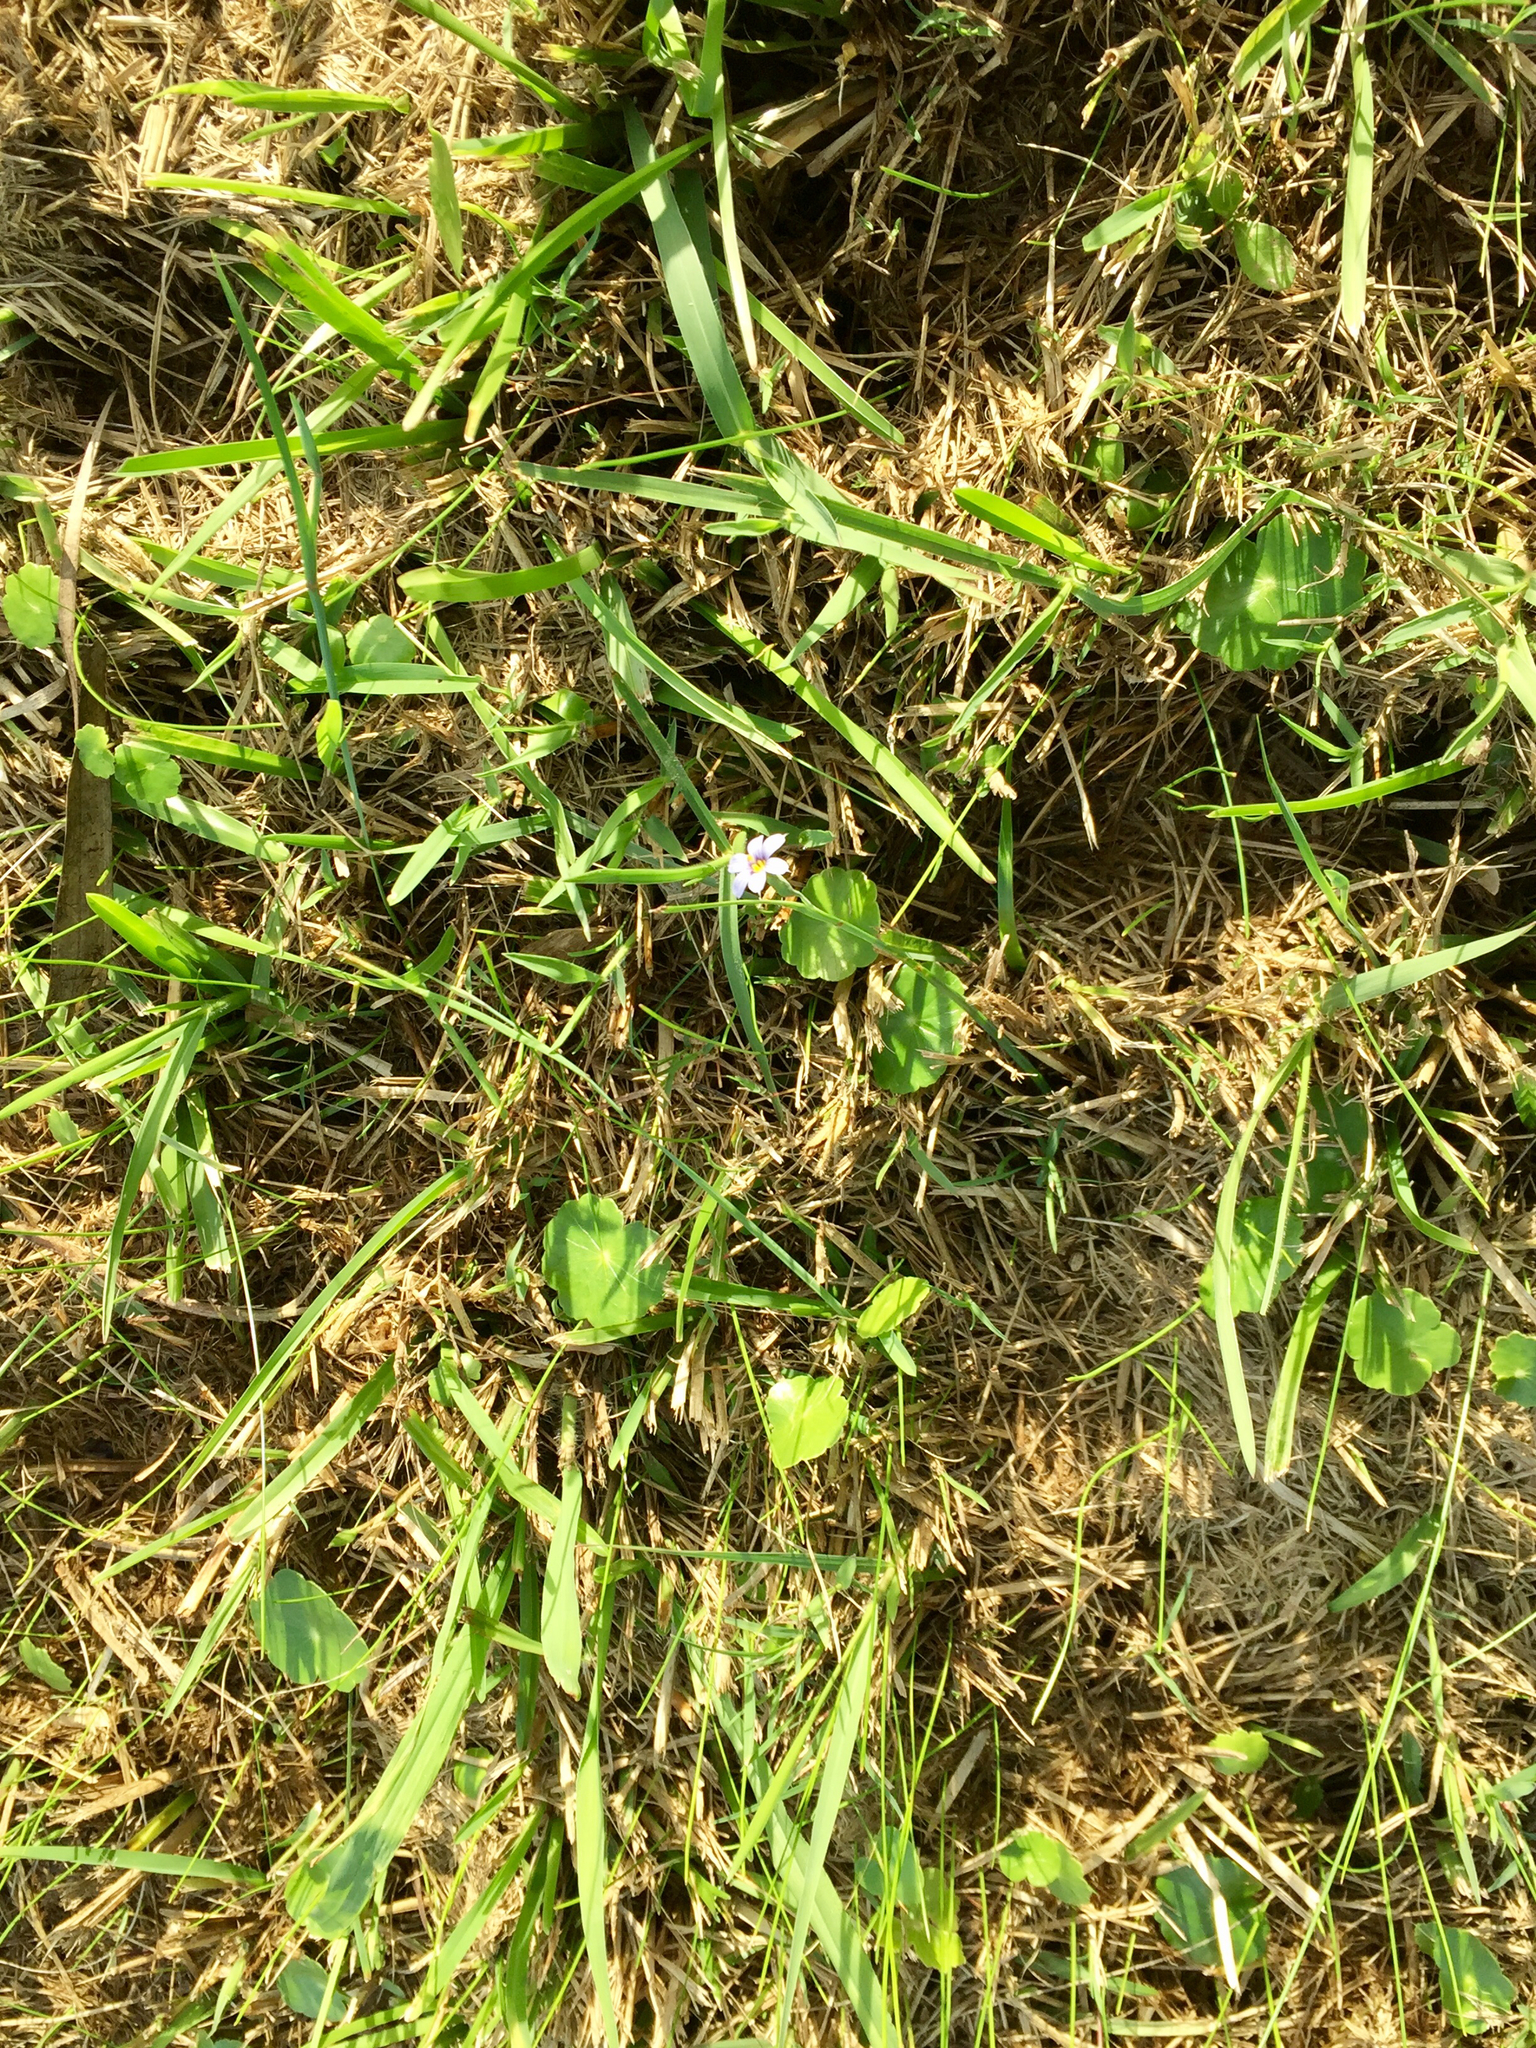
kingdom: Plantae
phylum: Tracheophyta
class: Liliopsida
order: Asparagales
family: Iridaceae
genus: Sisyrinchium
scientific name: Sisyrinchium biforme
